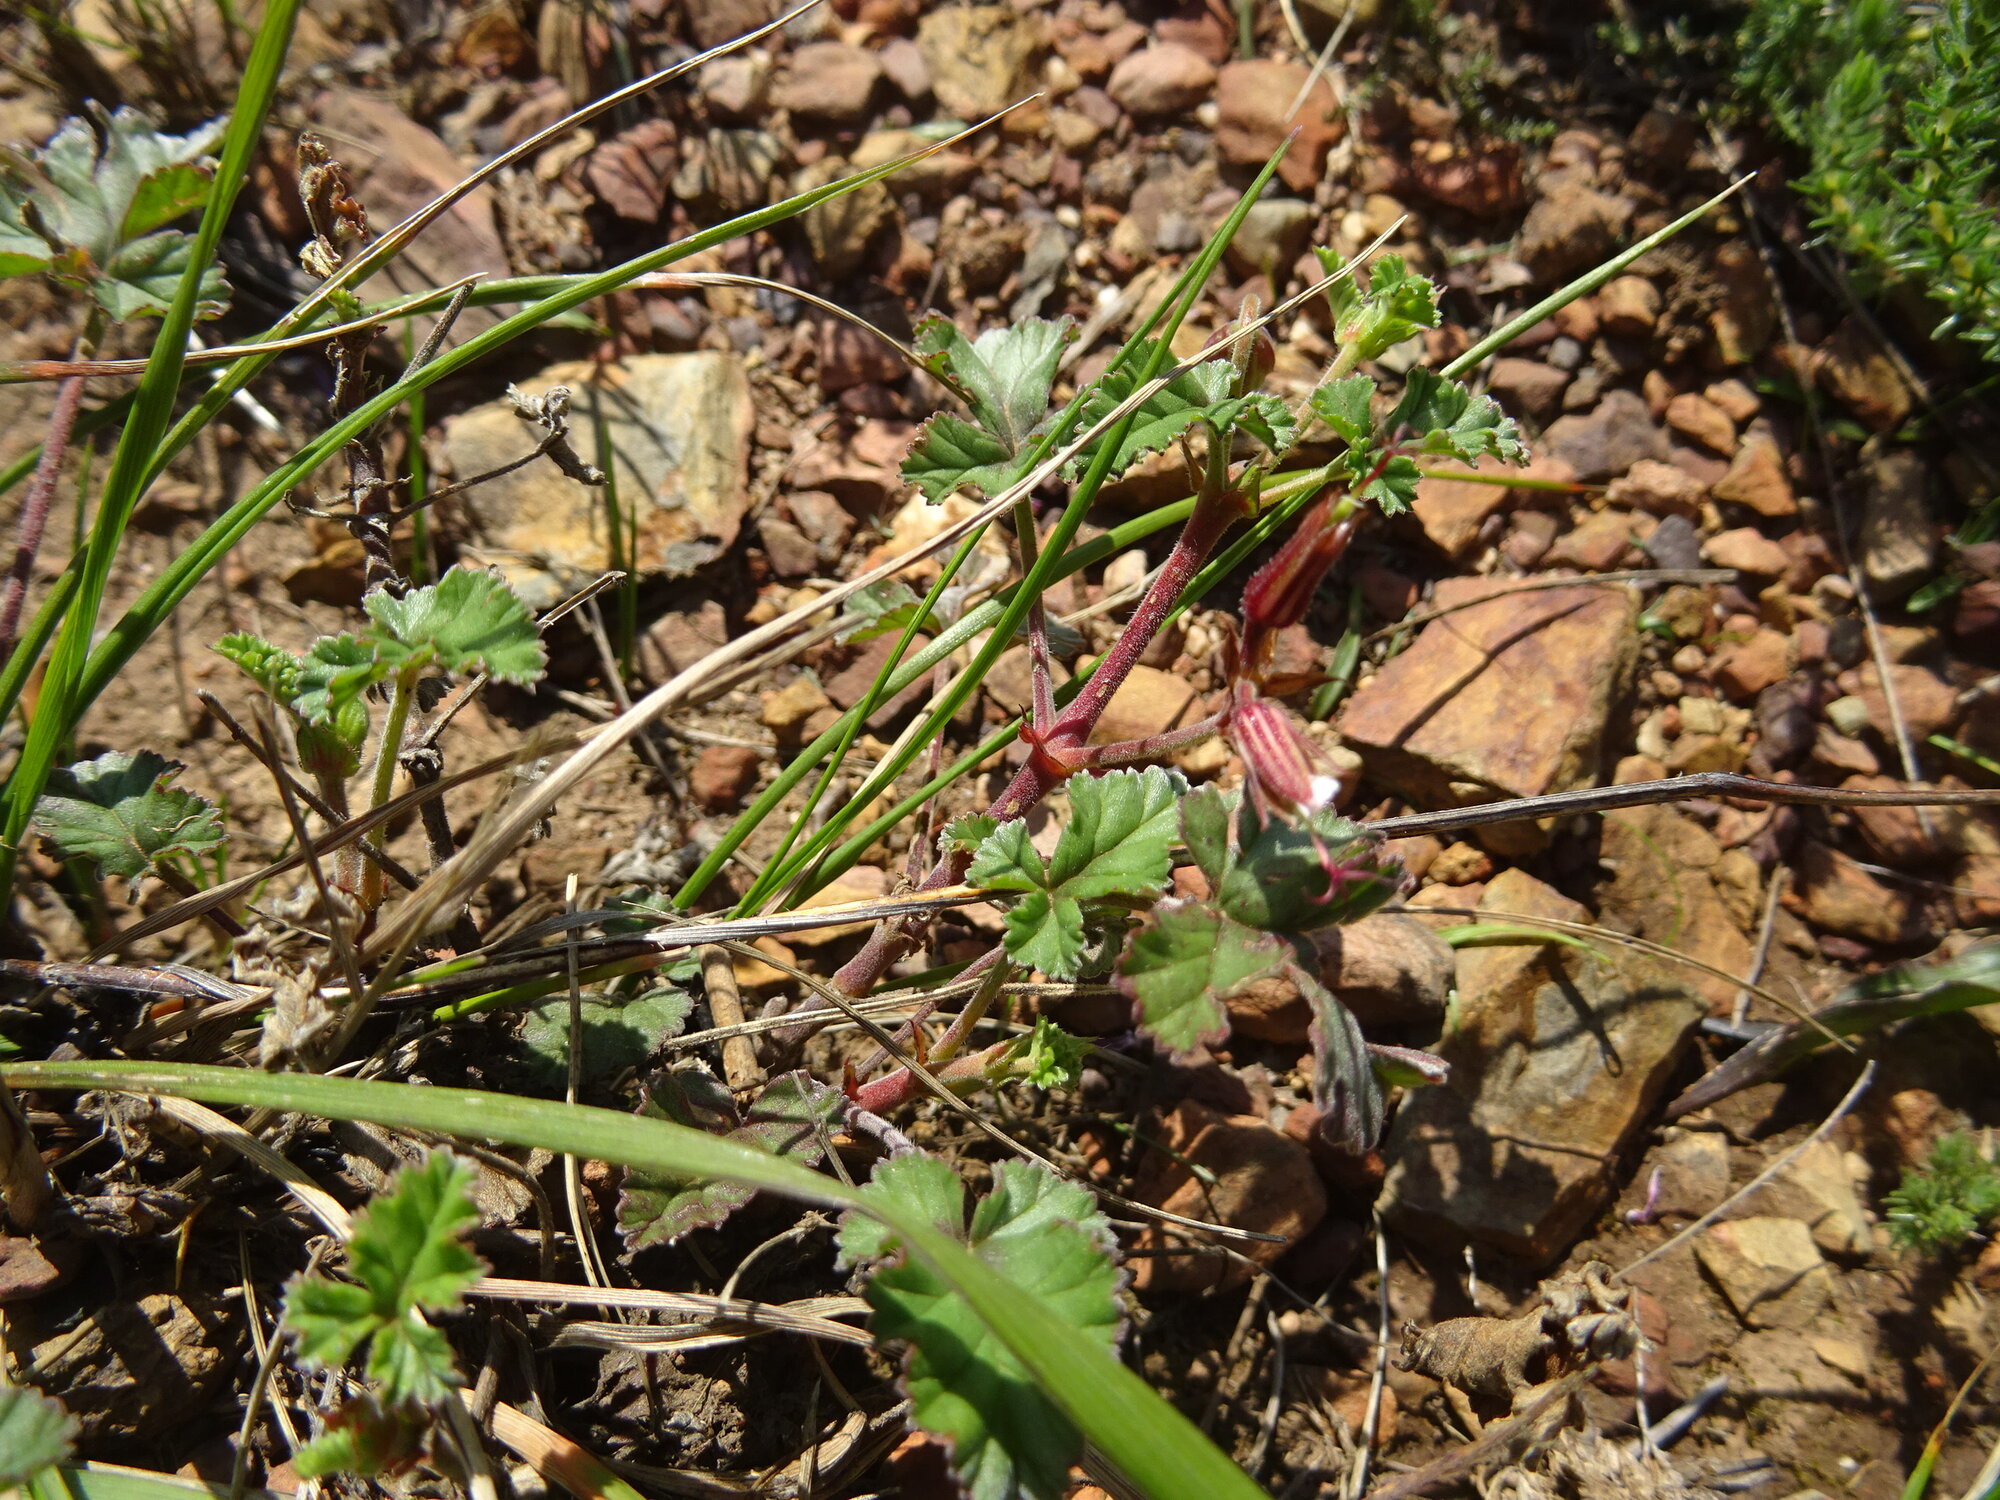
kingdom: Plantae
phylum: Tracheophyta
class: Magnoliopsida
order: Geraniales
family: Geraniaceae
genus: Pelargonium
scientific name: Pelargonium candicans
